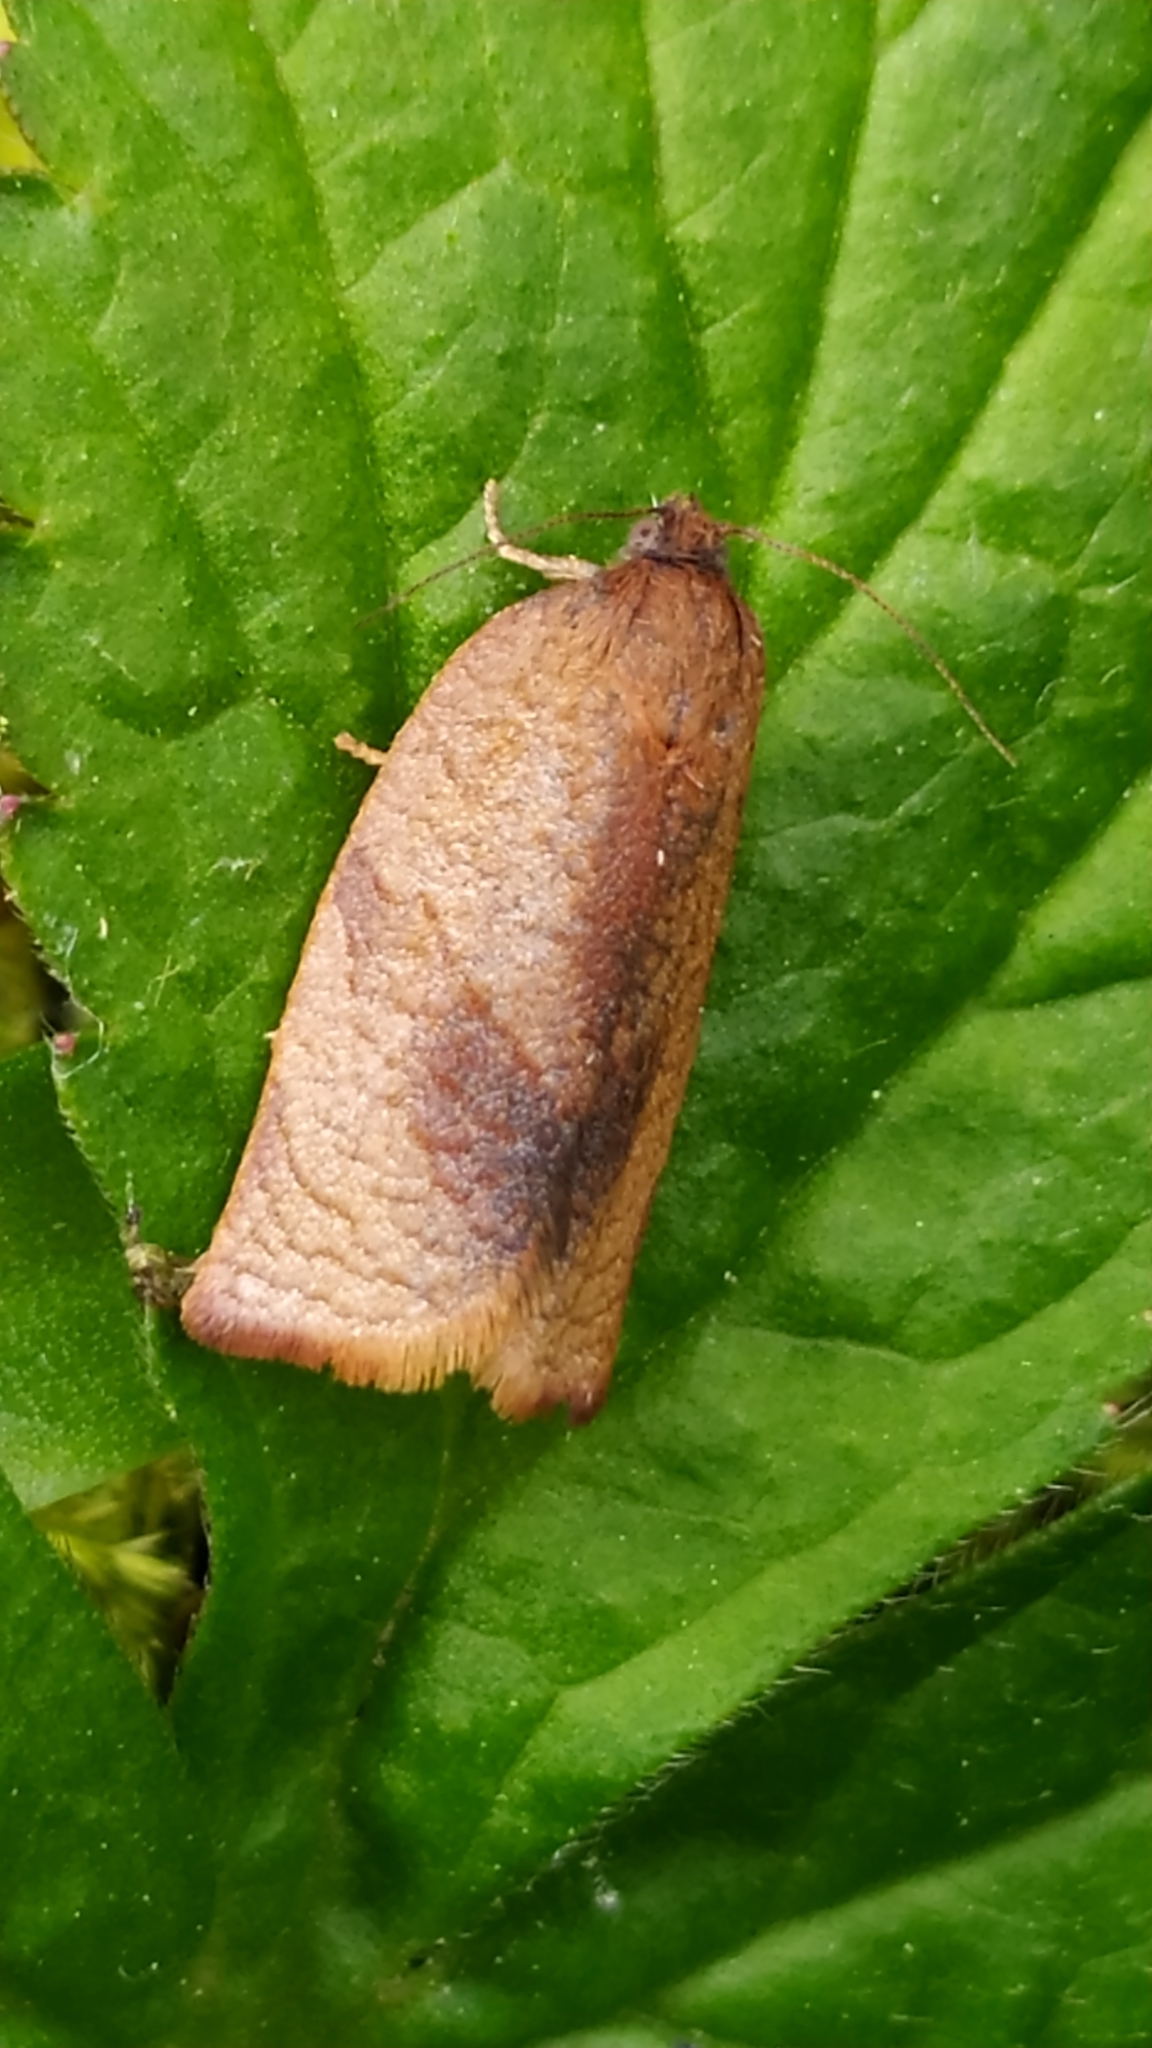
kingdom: Animalia
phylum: Arthropoda
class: Insecta
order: Lepidoptera
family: Tortricidae
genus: Cacoecimorpha
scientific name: Cacoecimorpha pronubana
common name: Carnation tortrix
